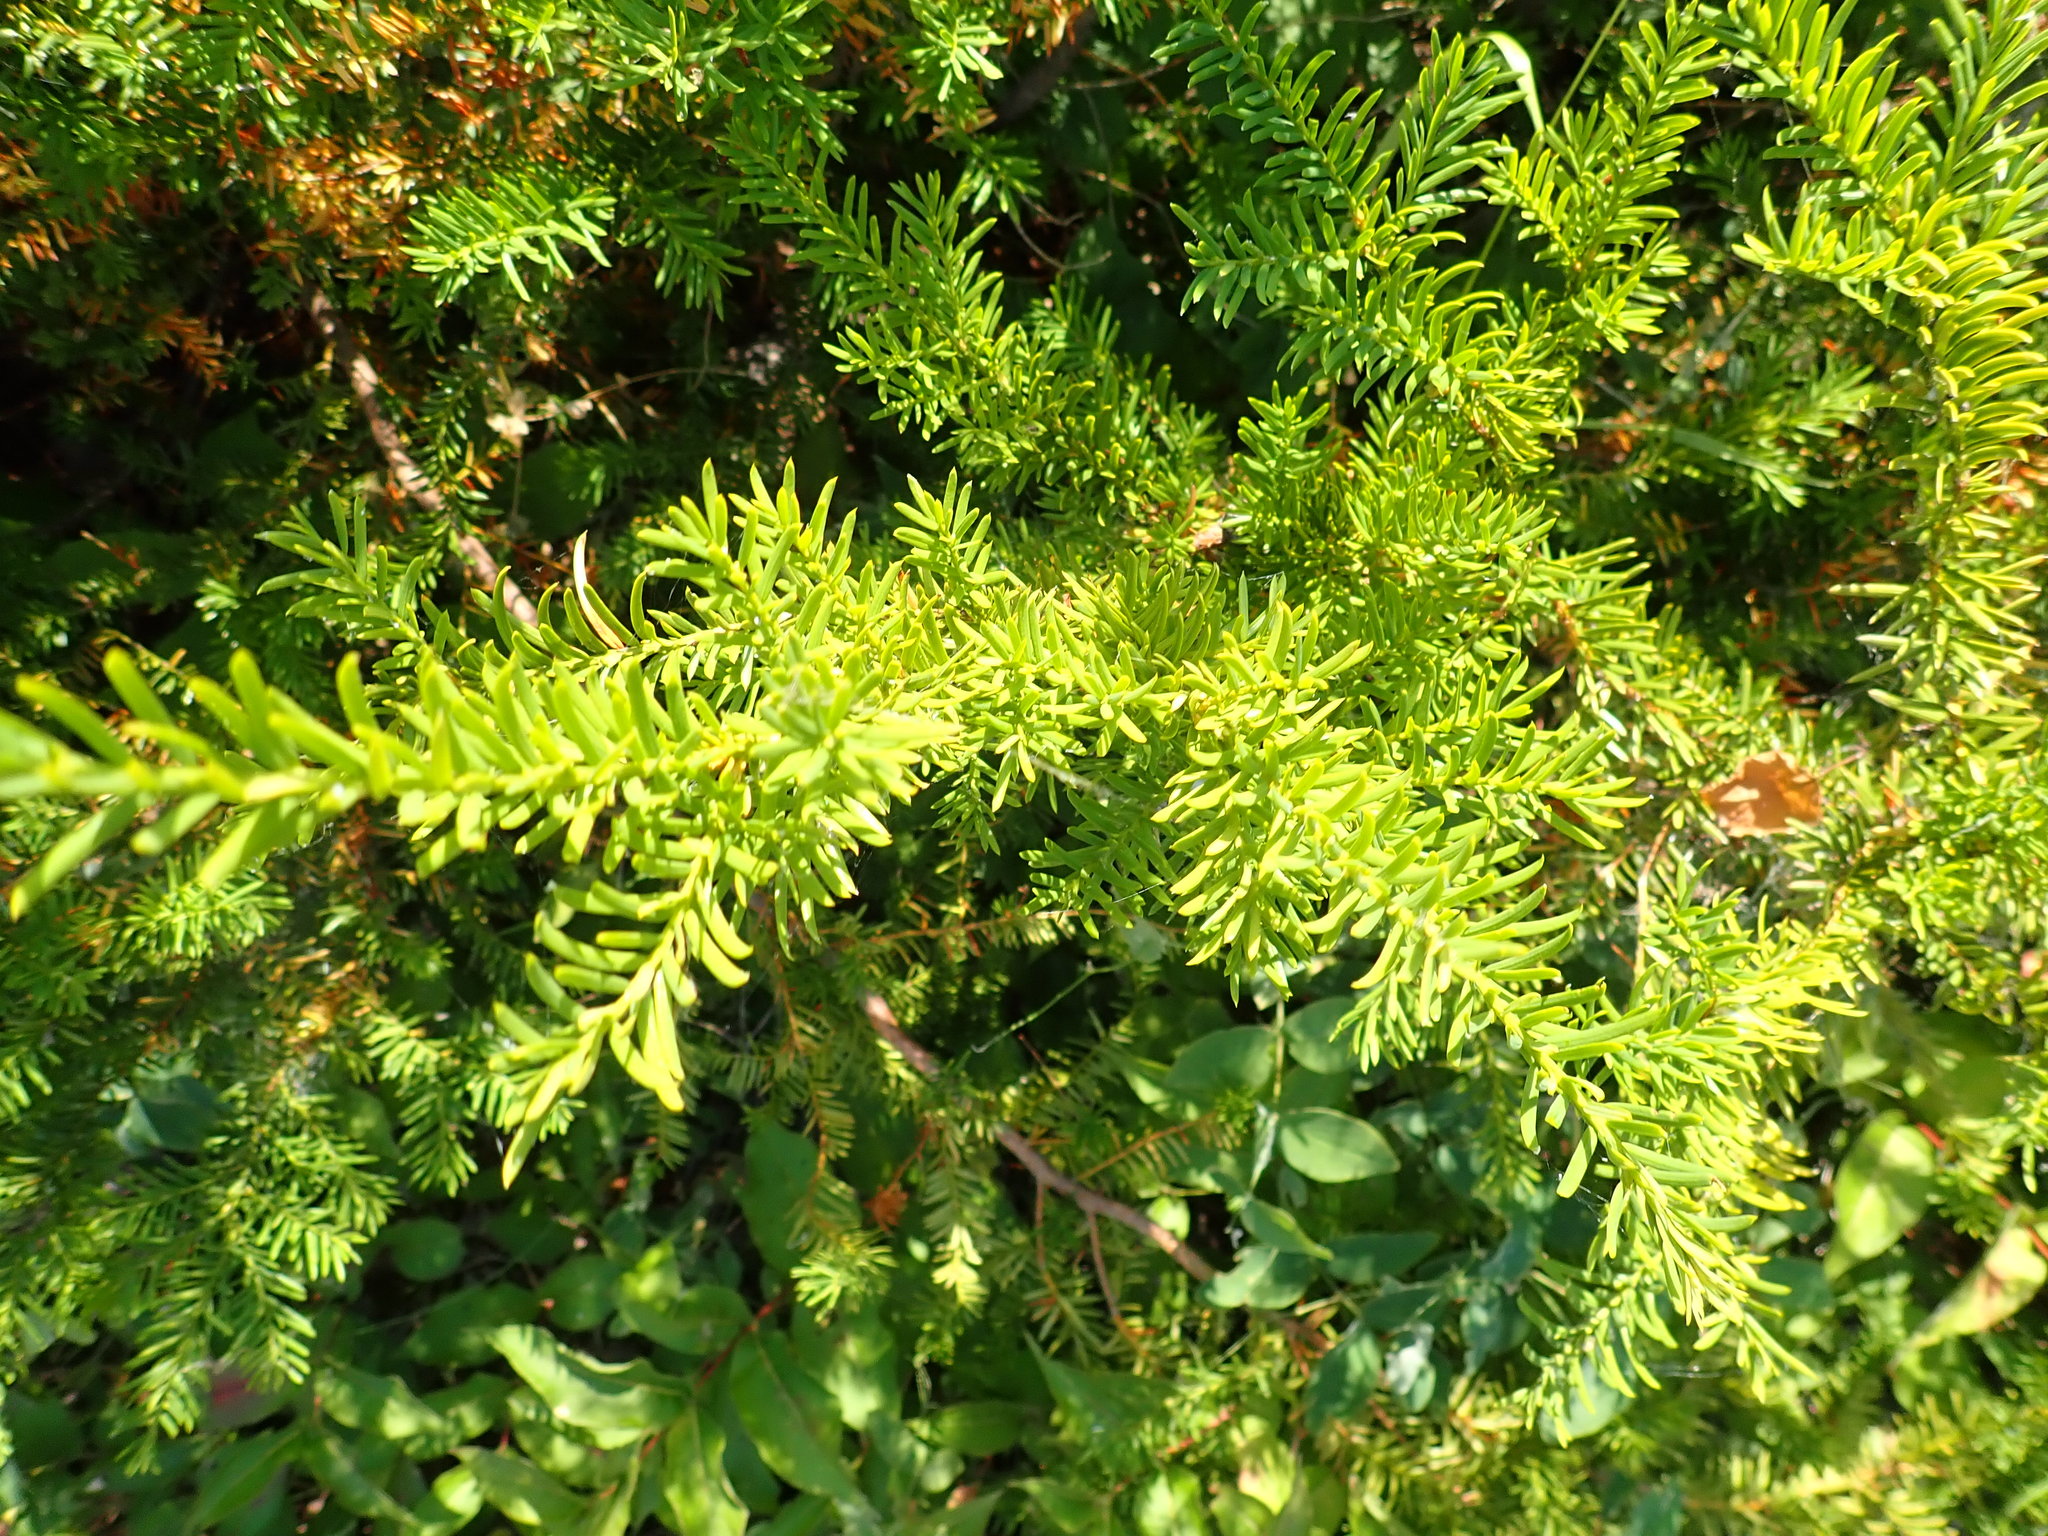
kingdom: Plantae
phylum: Tracheophyta
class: Pinopsida
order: Pinales
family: Taxaceae
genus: Taxus
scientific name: Taxus canadensis
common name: American yew
